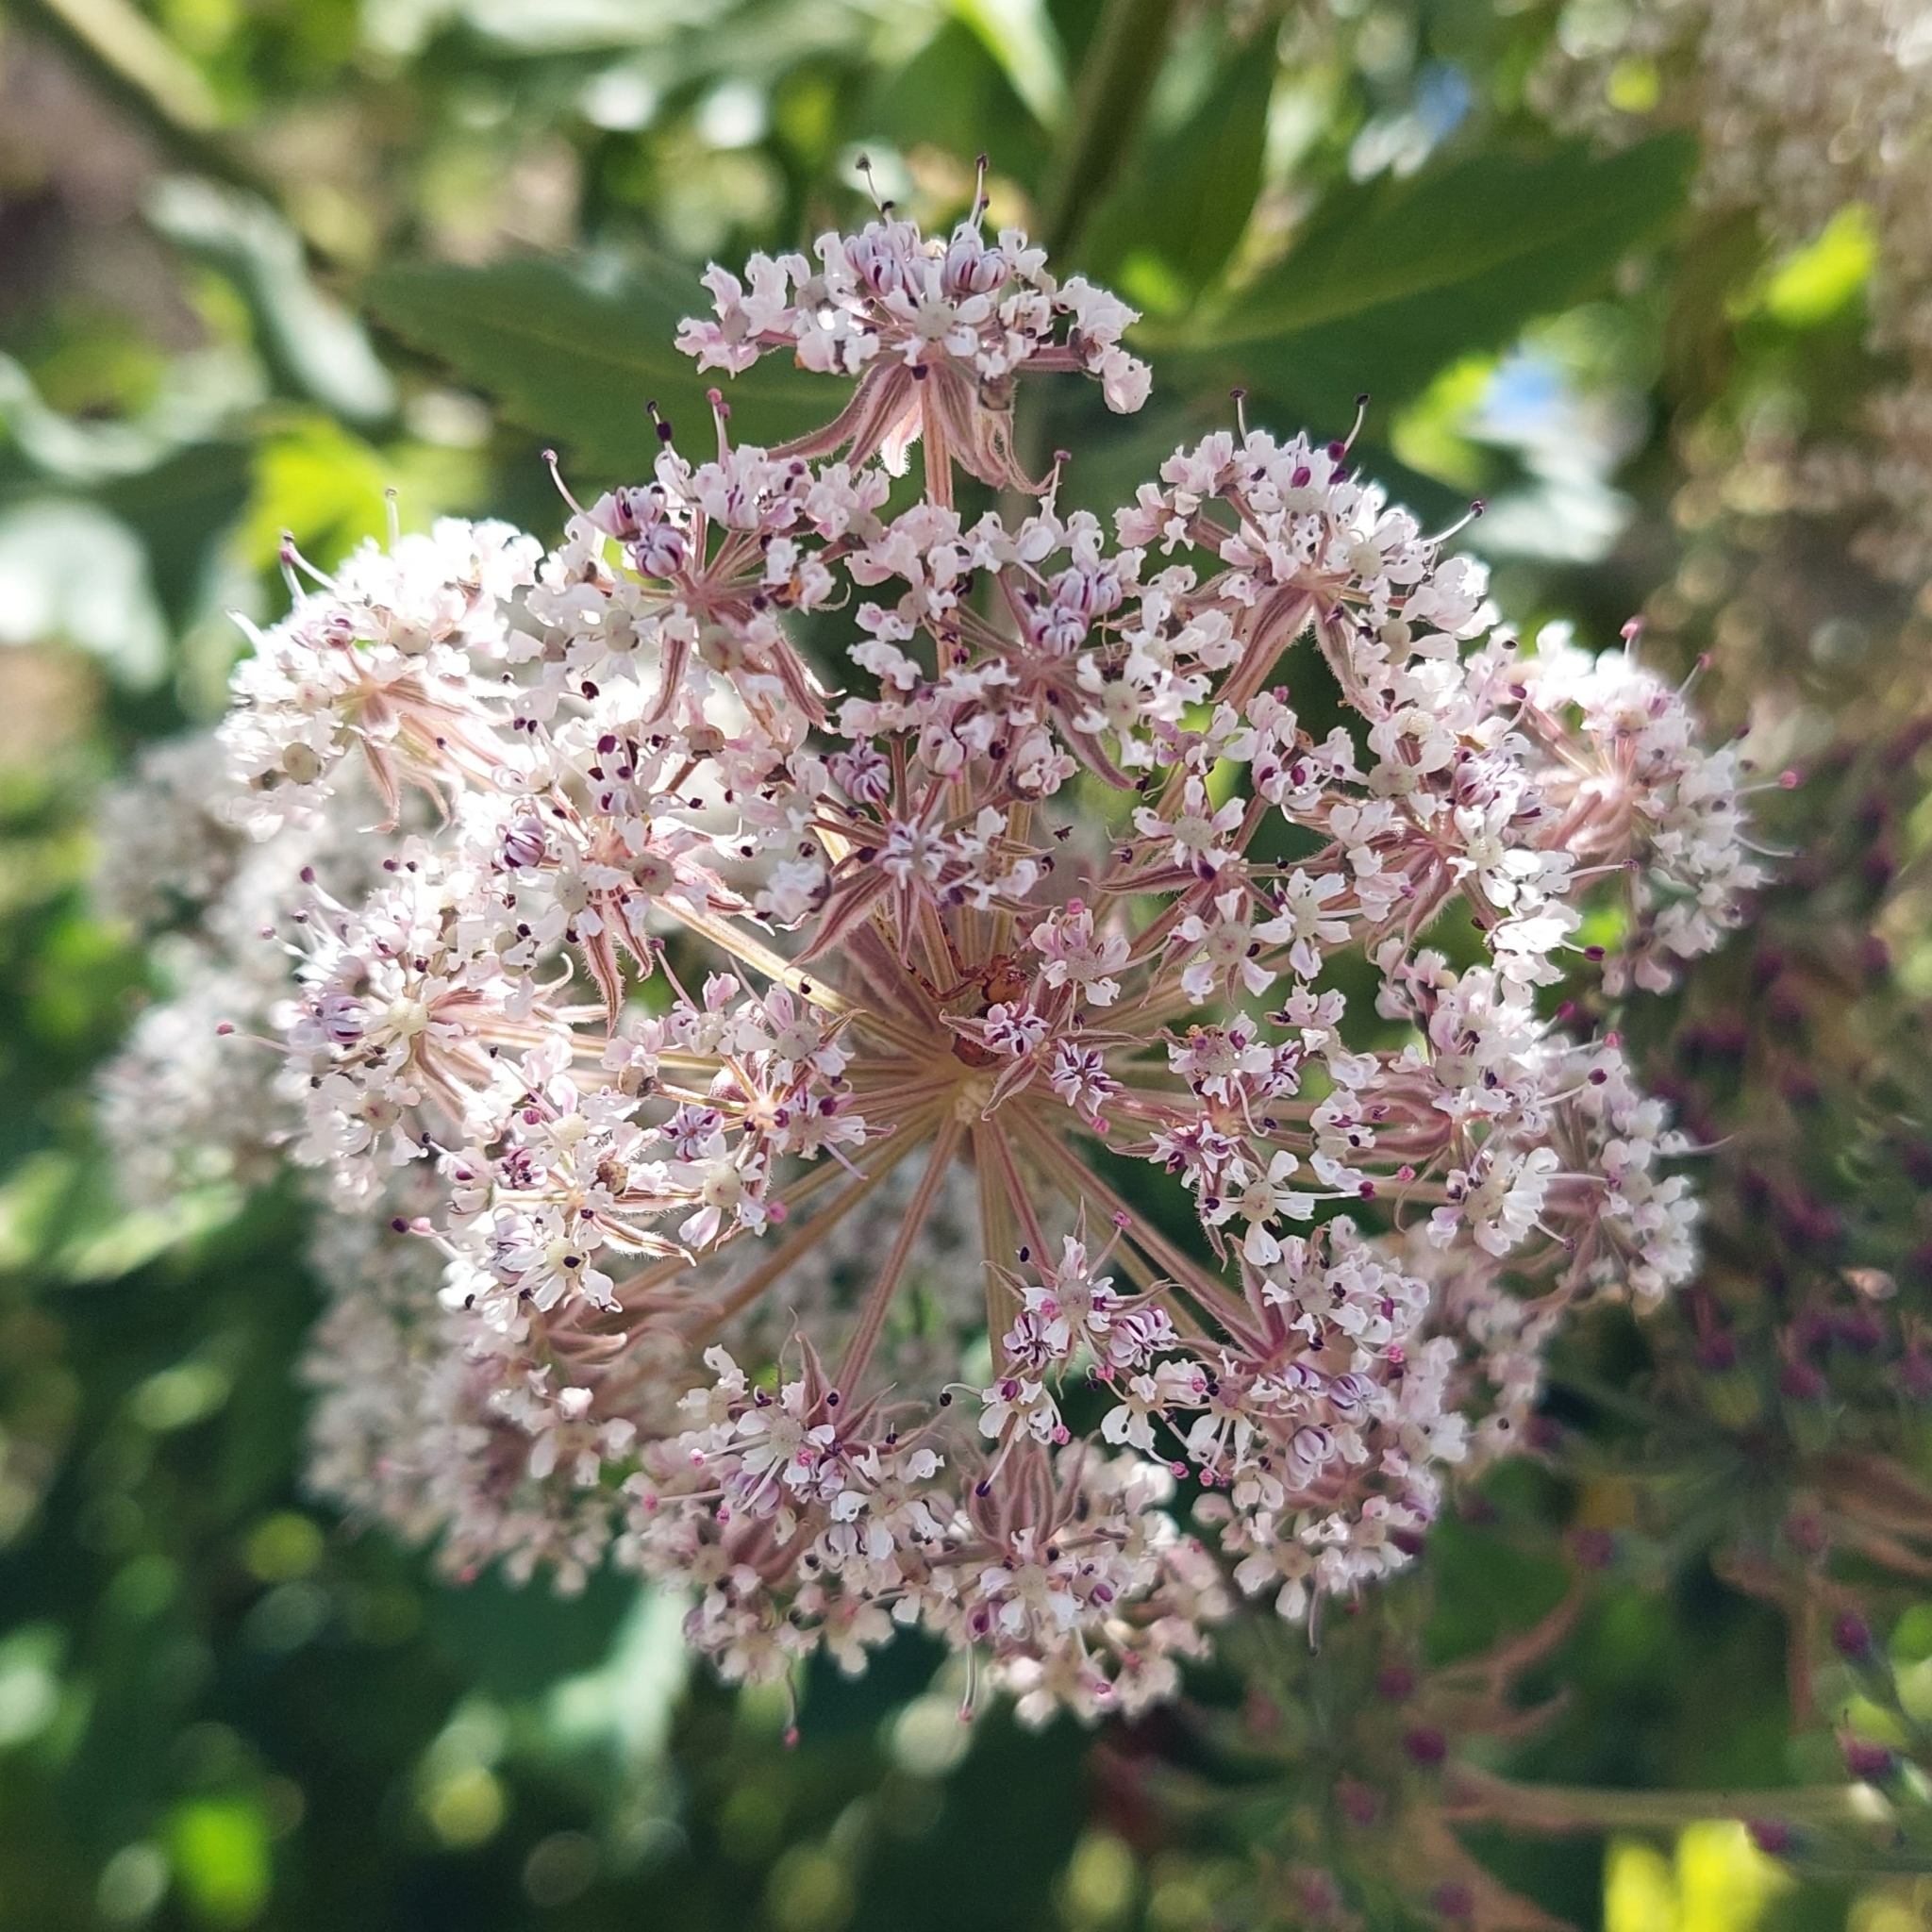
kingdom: Plantae
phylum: Tracheophyta
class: Magnoliopsida
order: Apiales
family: Apiaceae
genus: Daucus
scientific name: Daucus decipiens
